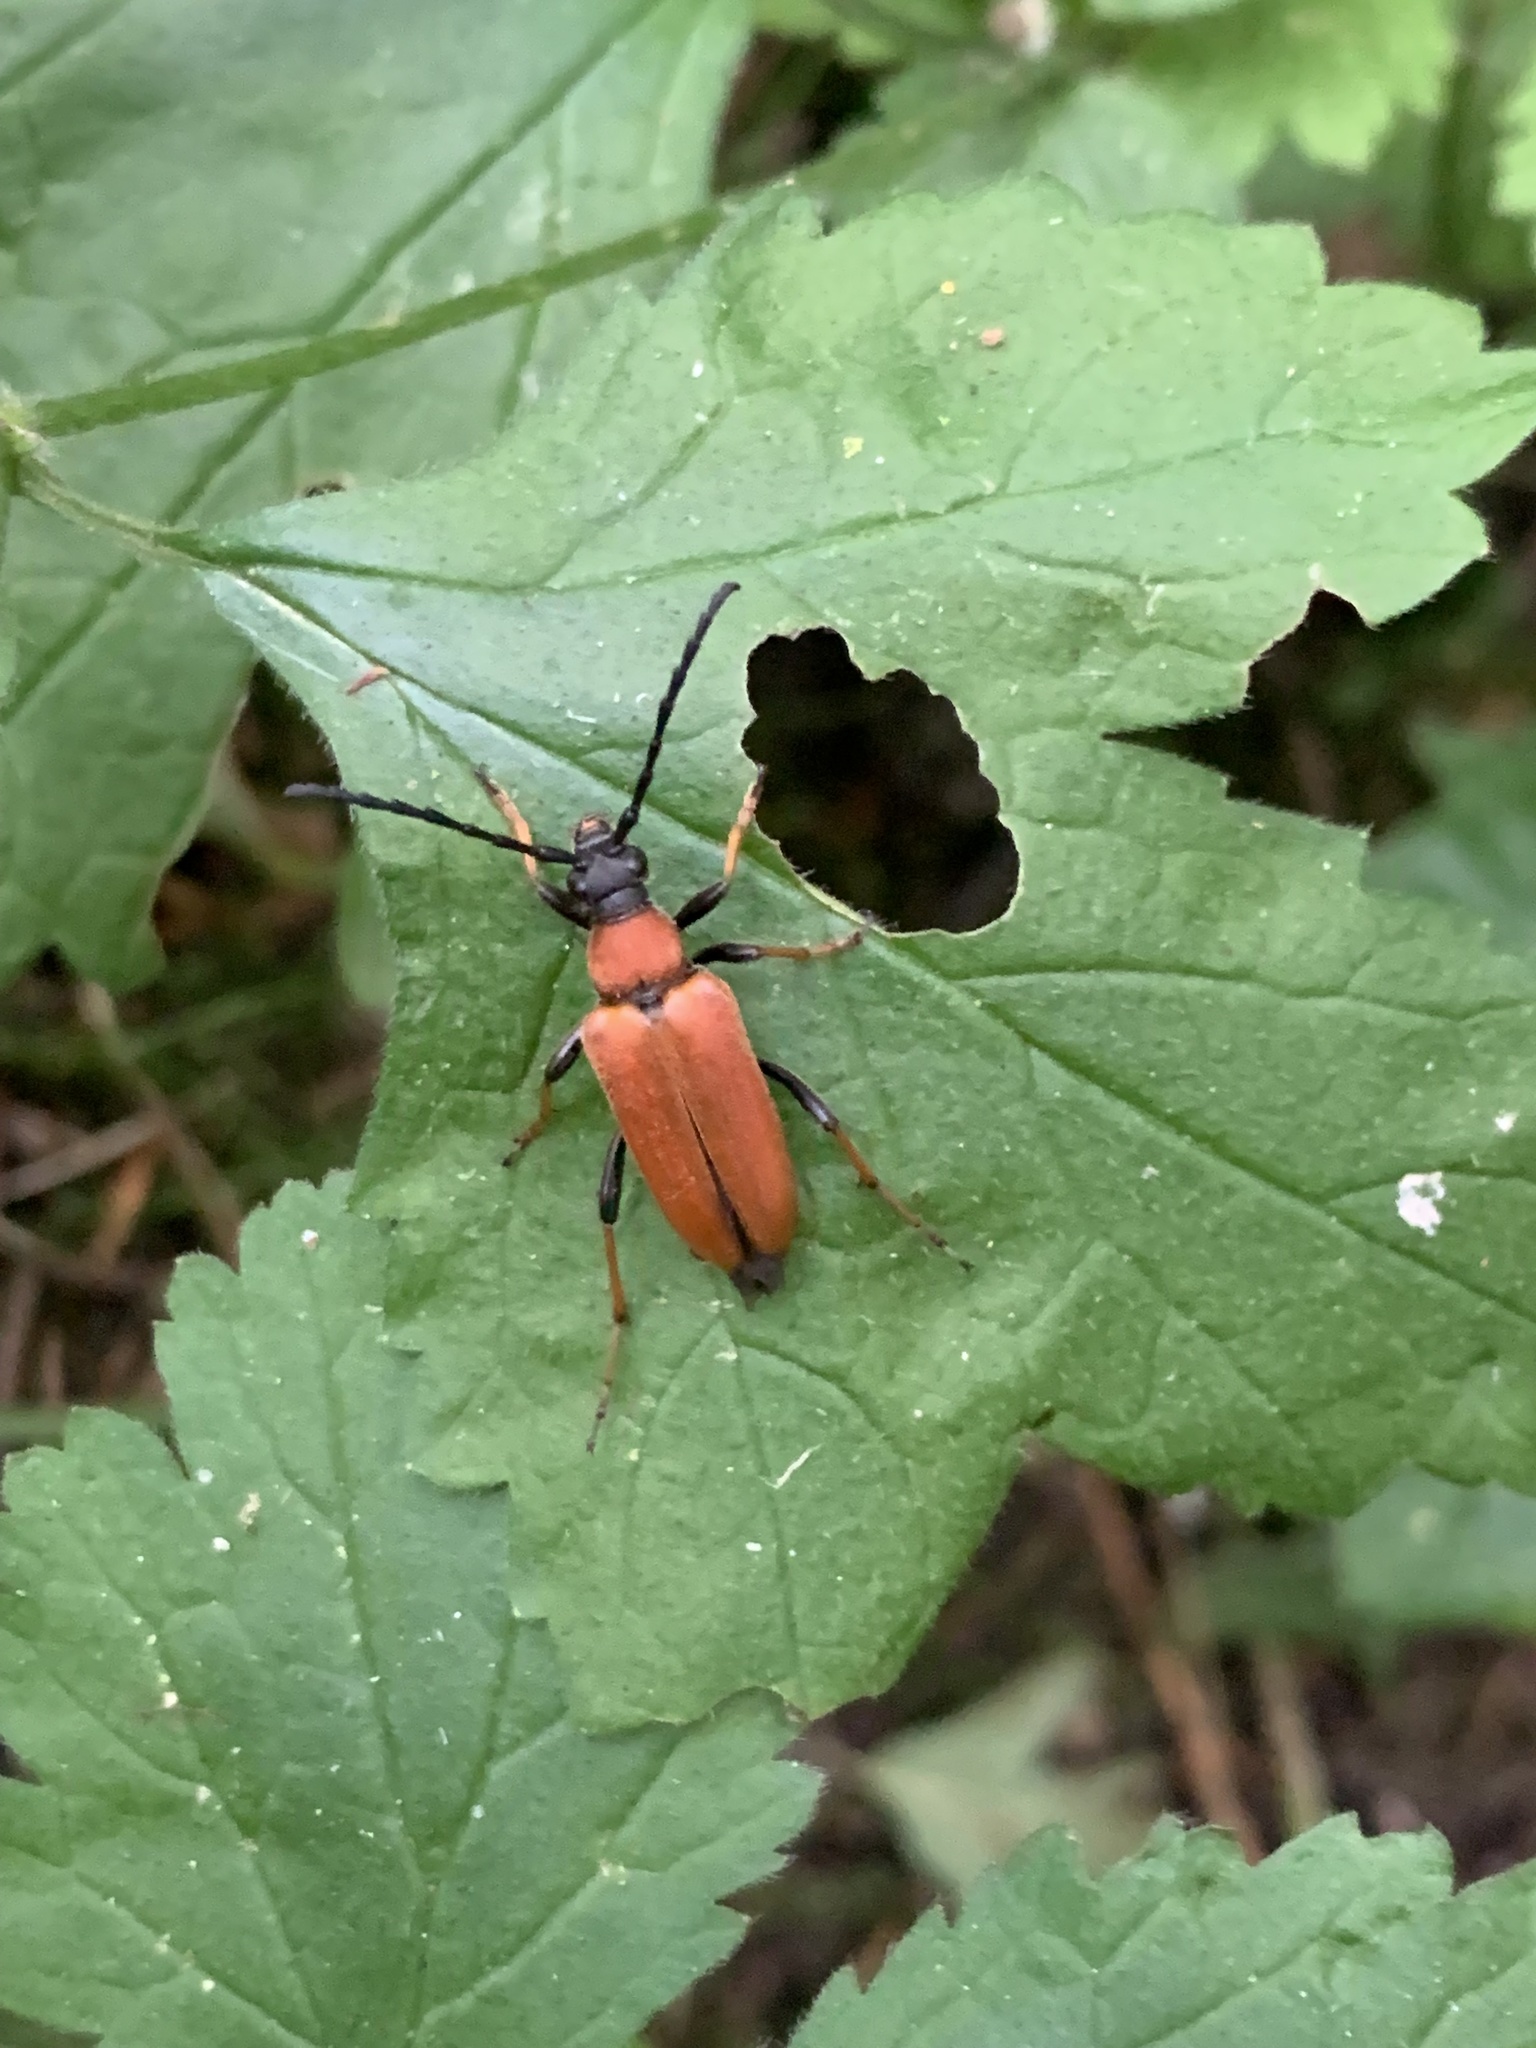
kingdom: Animalia
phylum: Arthropoda
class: Insecta
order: Coleoptera
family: Cerambycidae
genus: Stictoleptura
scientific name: Stictoleptura rubra
